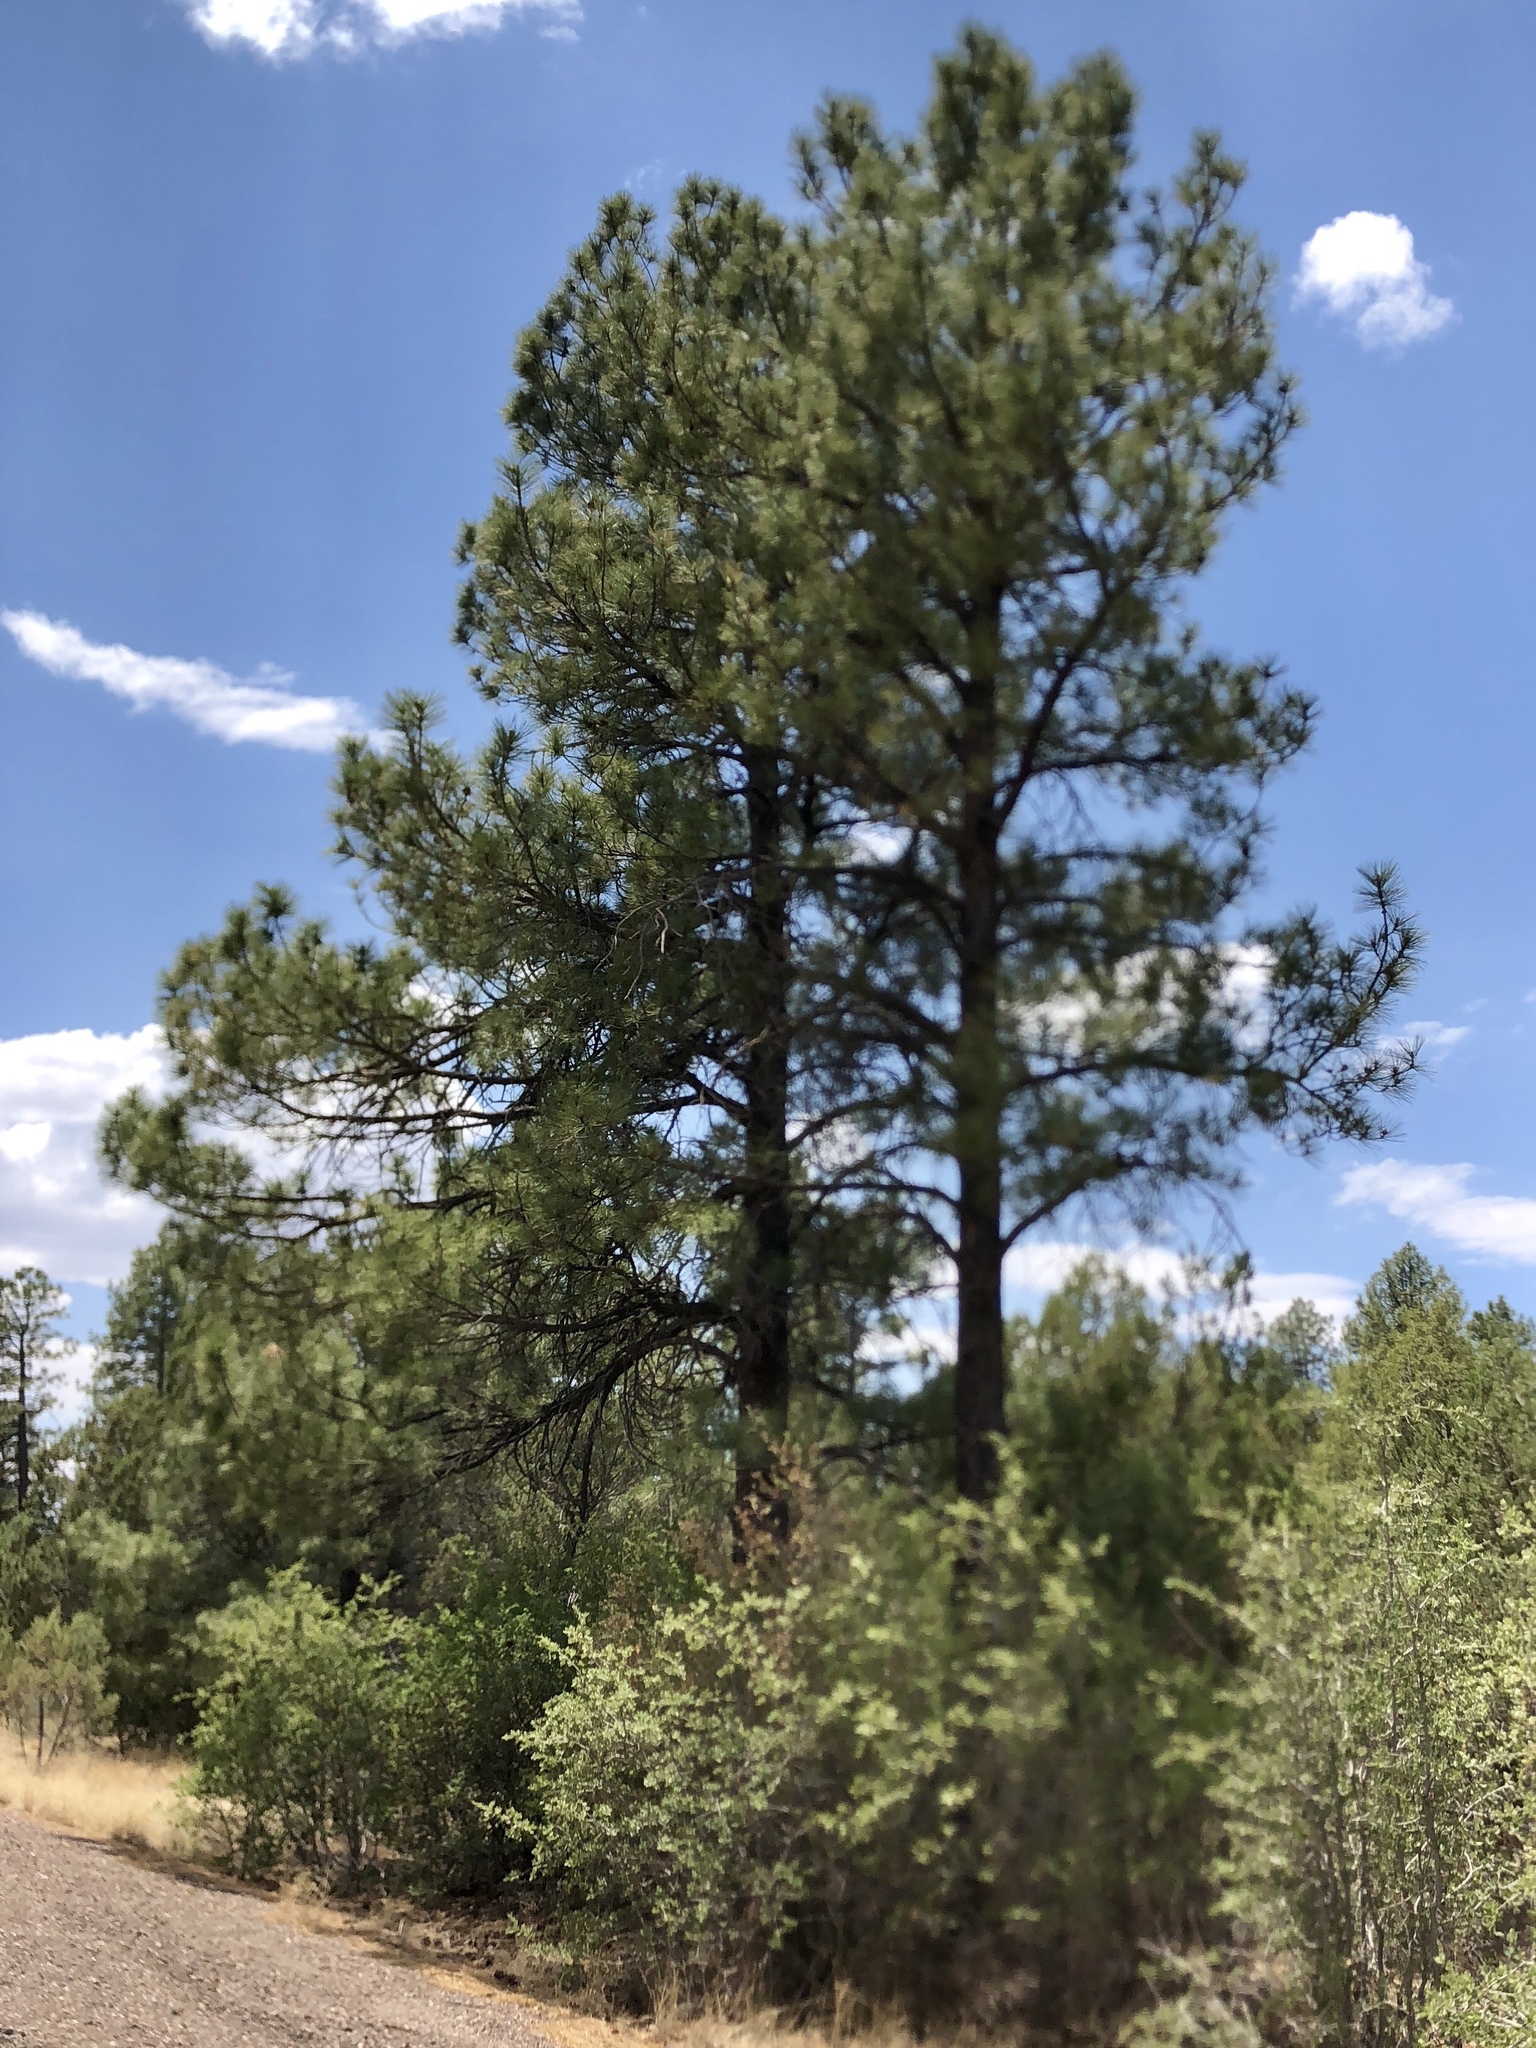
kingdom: Plantae
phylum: Tracheophyta
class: Pinopsida
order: Pinales
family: Pinaceae
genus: Pinus
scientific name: Pinus ponderosa
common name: Western yellow-pine
